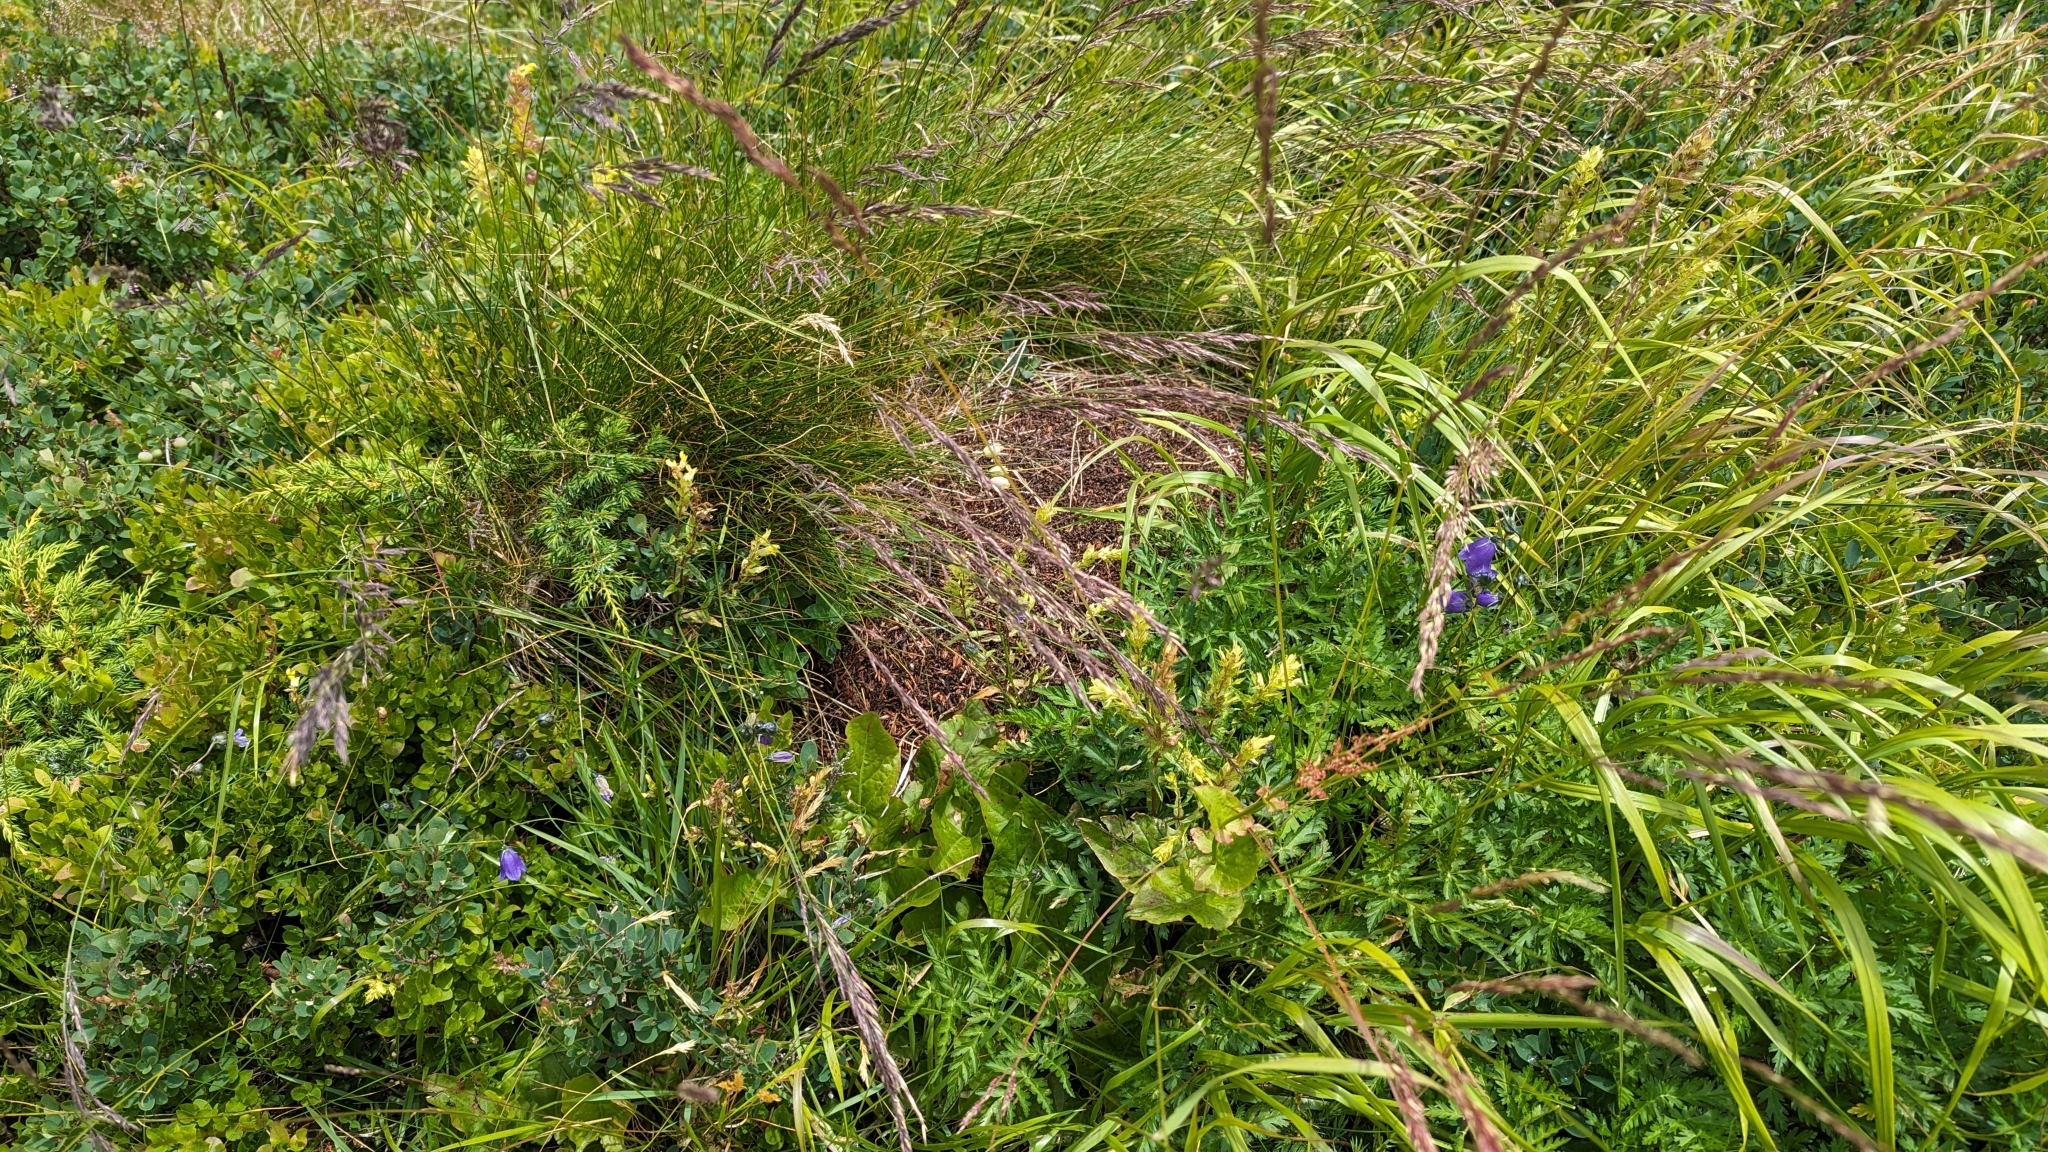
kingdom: Animalia
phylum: Arthropoda
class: Insecta
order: Hymenoptera
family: Formicidae
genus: Formica
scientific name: Formica
